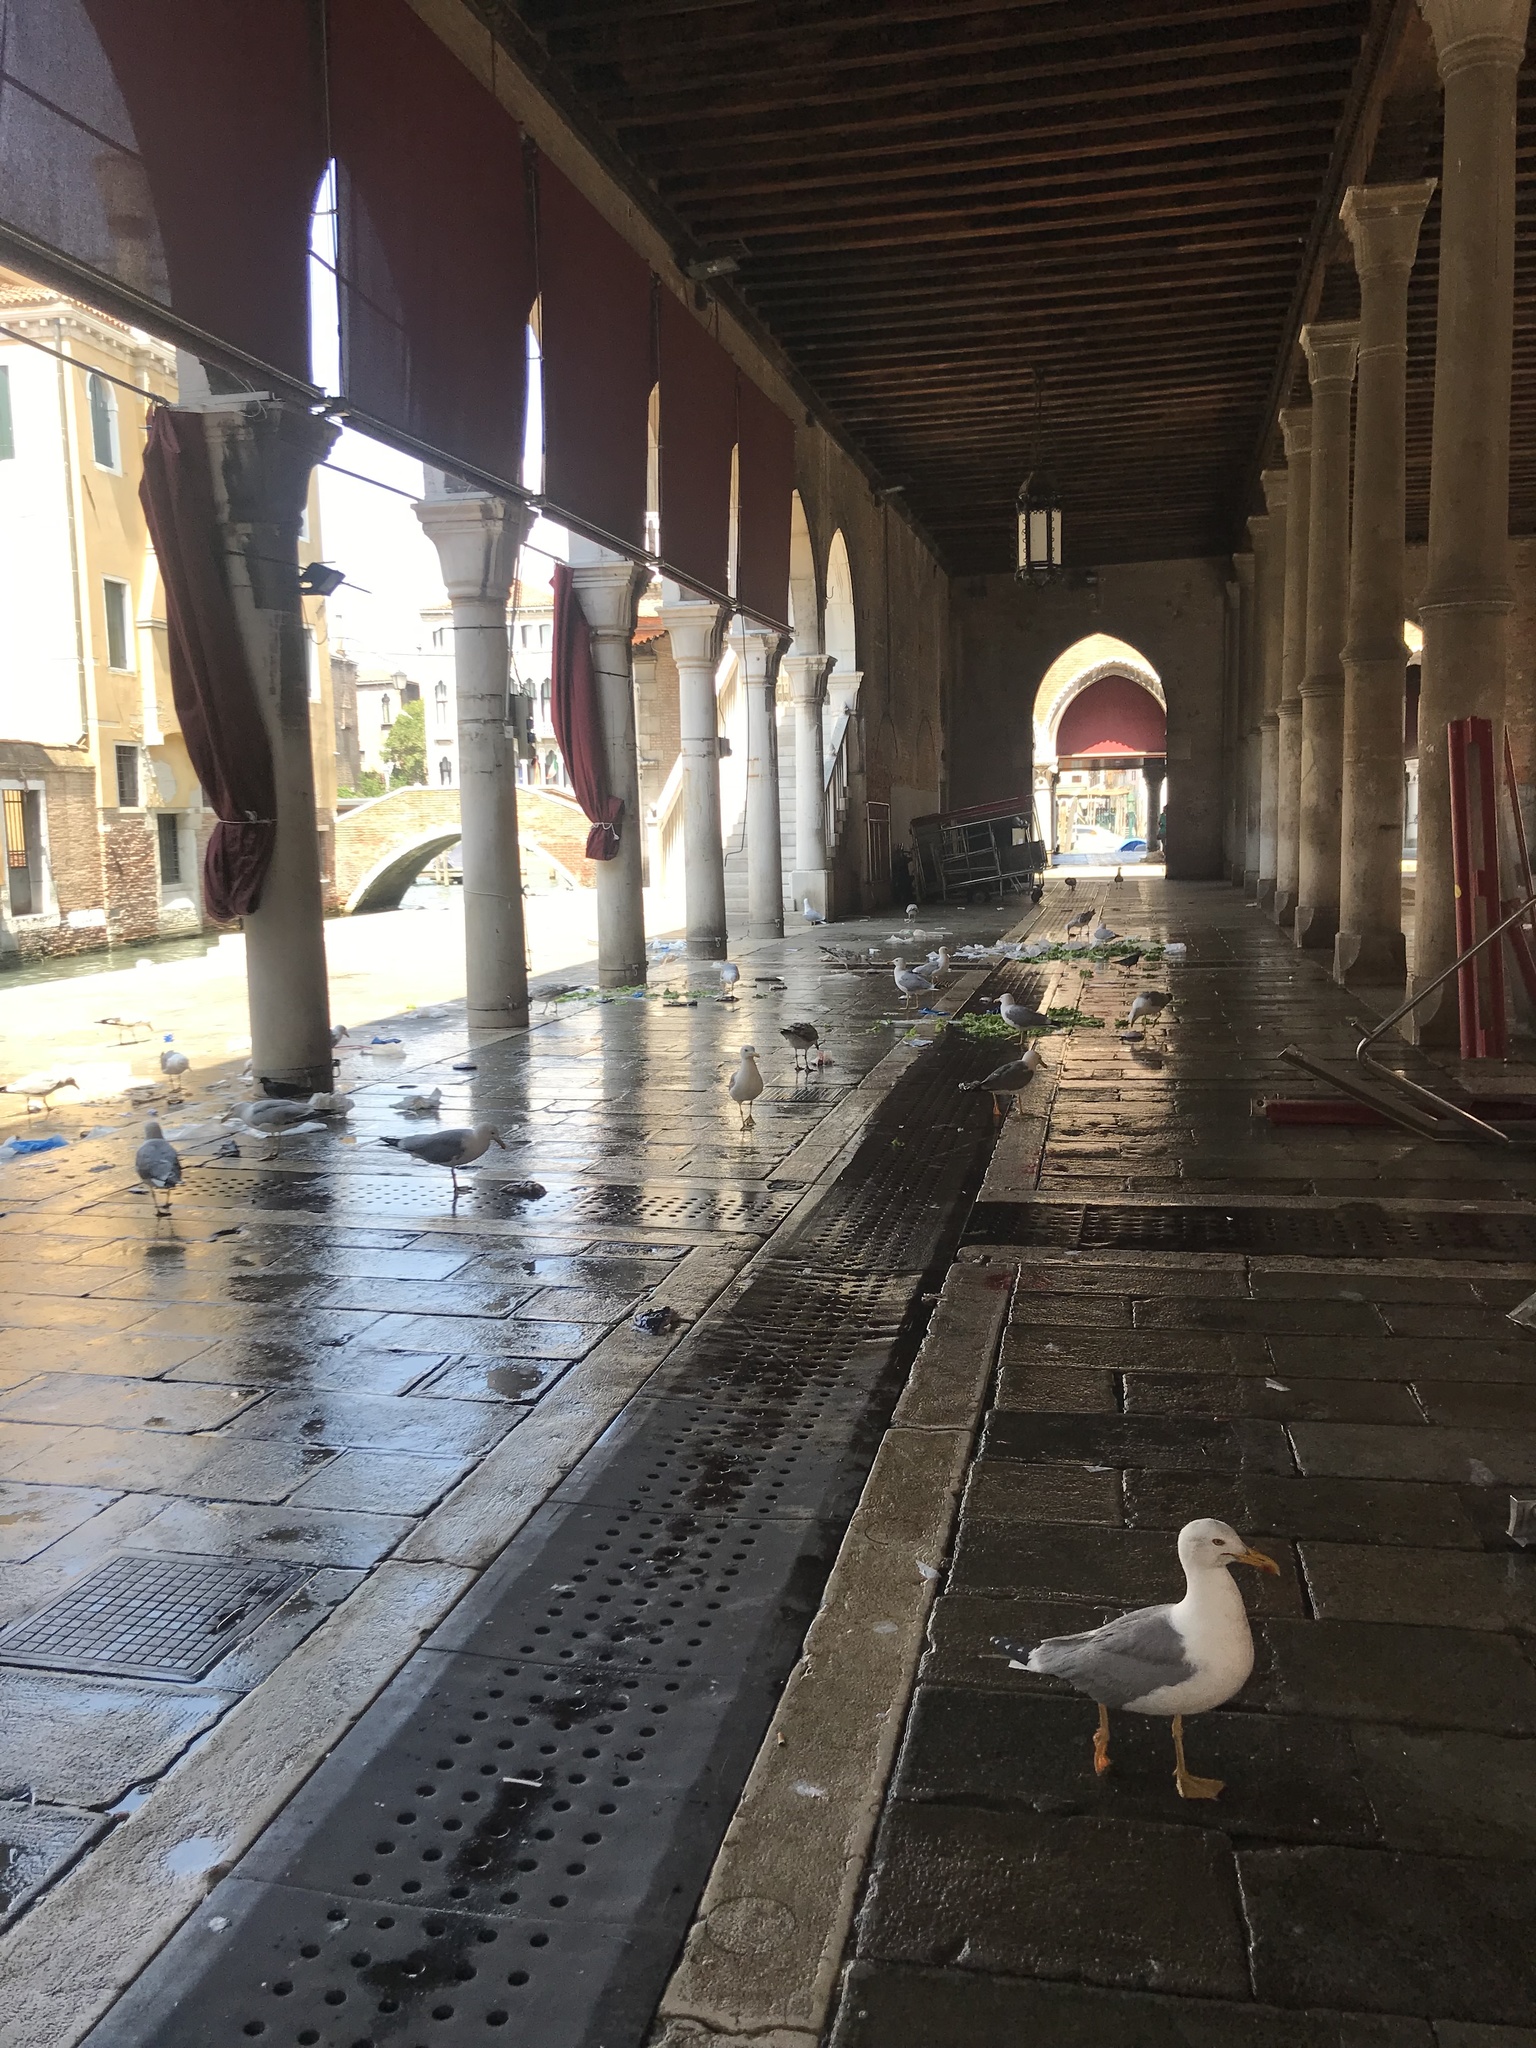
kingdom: Animalia
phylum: Chordata
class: Aves
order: Charadriiformes
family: Laridae
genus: Larus
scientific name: Larus michahellis
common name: Yellow-legged gull
